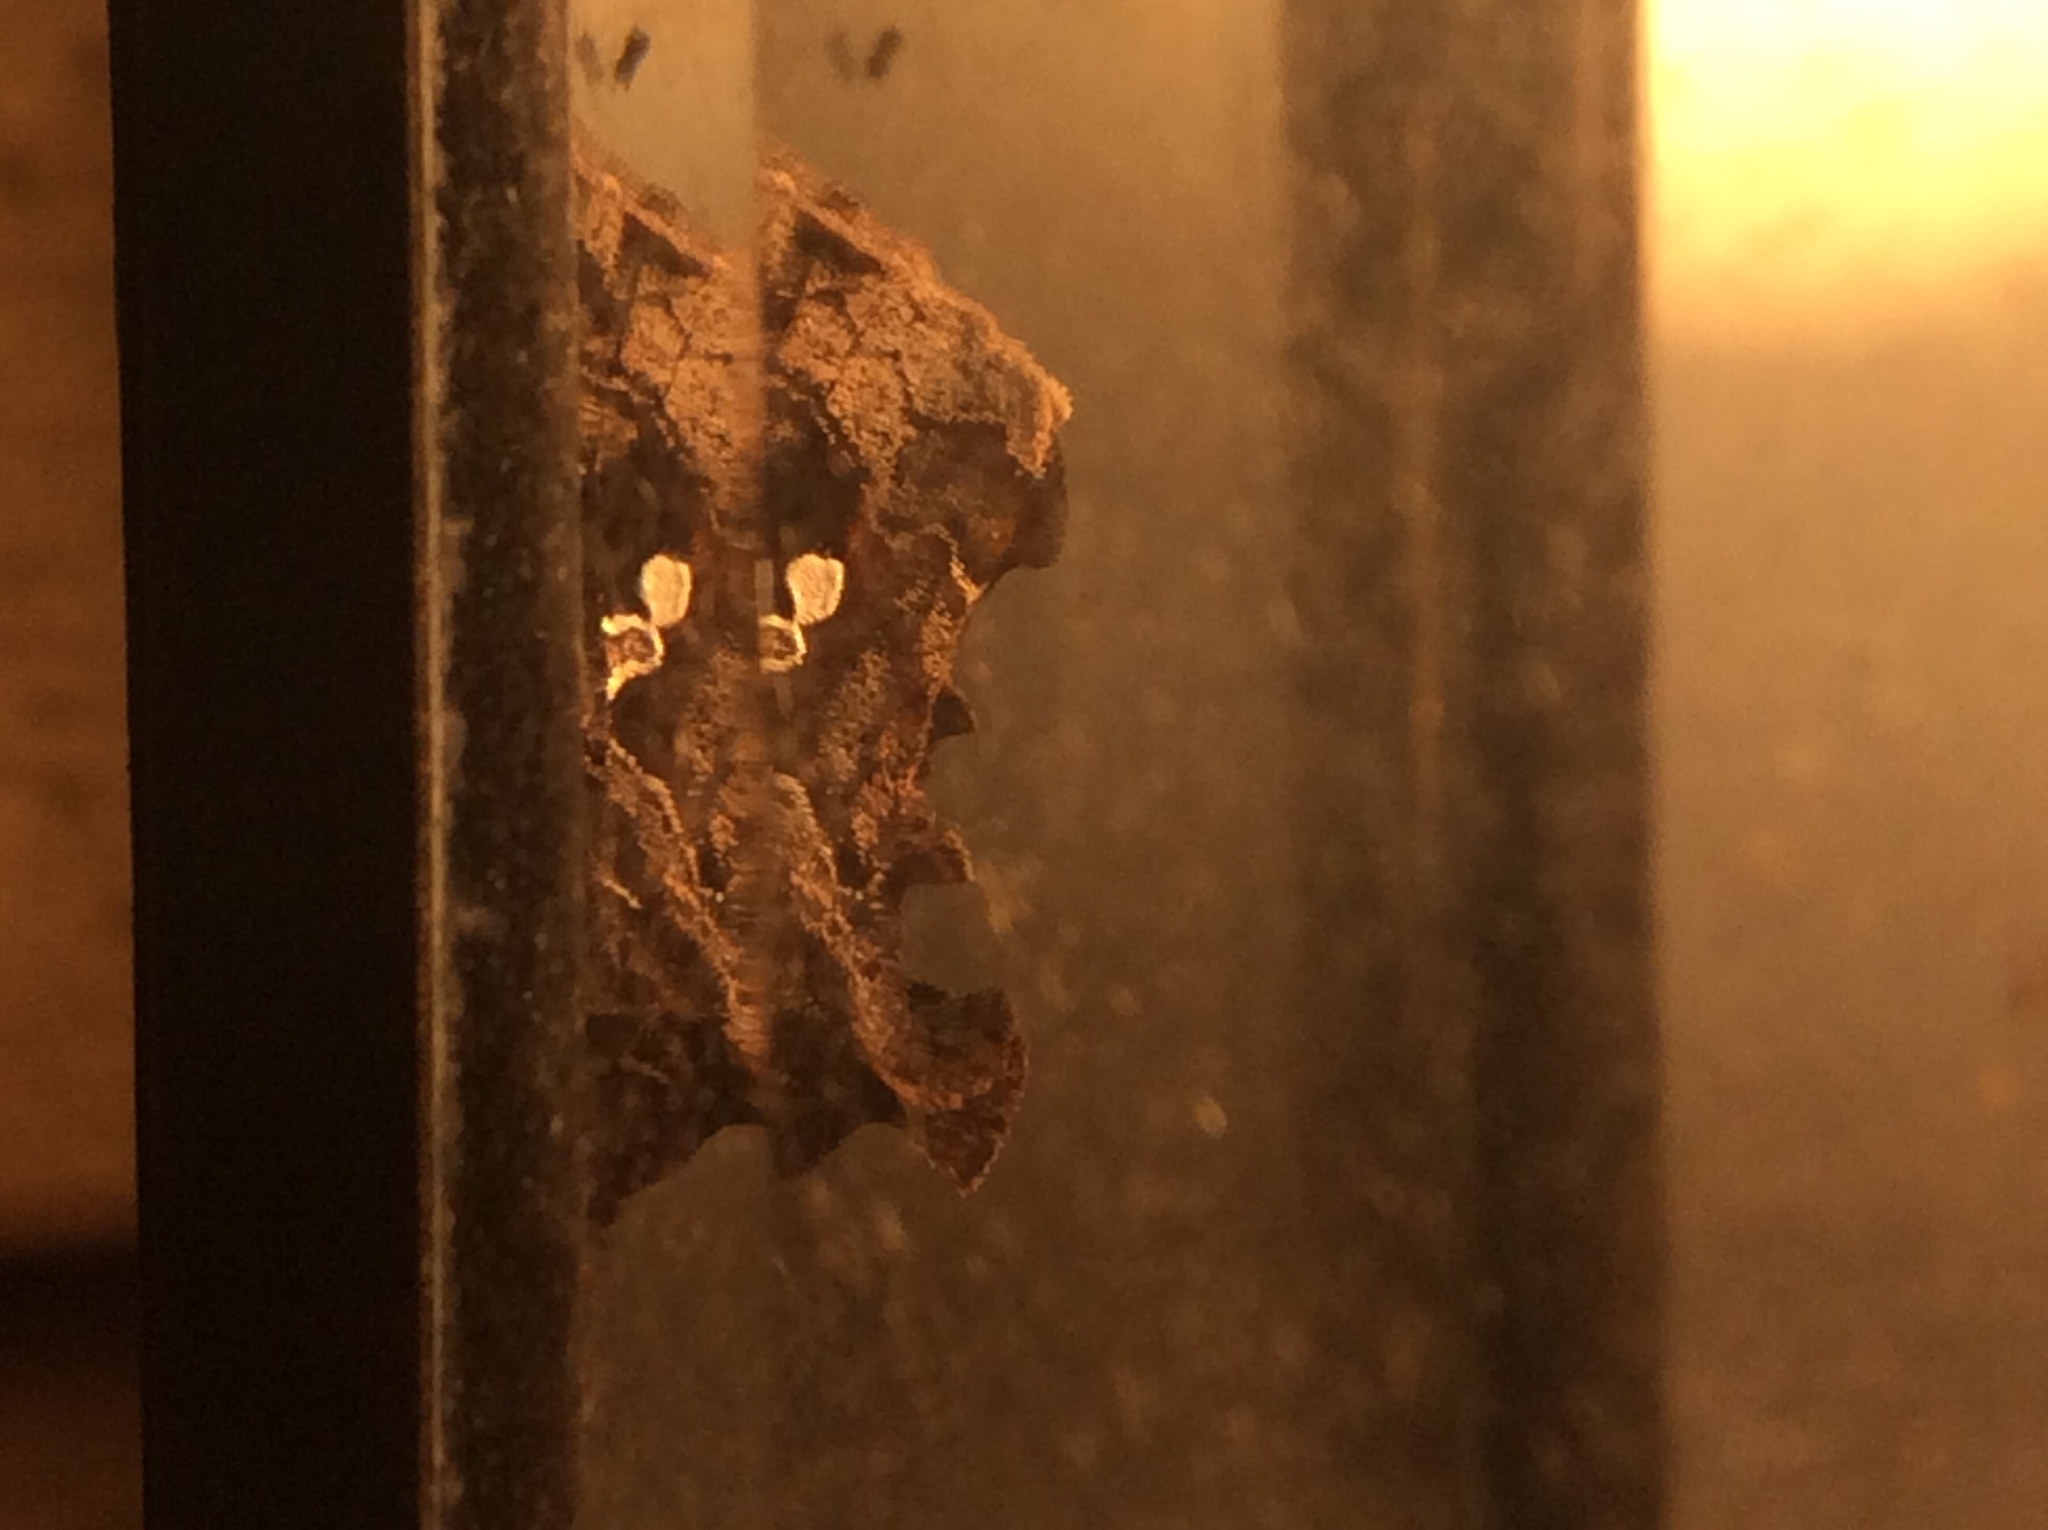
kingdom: Animalia
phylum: Arthropoda
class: Insecta
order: Lepidoptera
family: Noctuidae
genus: Chrysodeixis
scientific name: Chrysodeixis includens
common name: Cutworm moth
